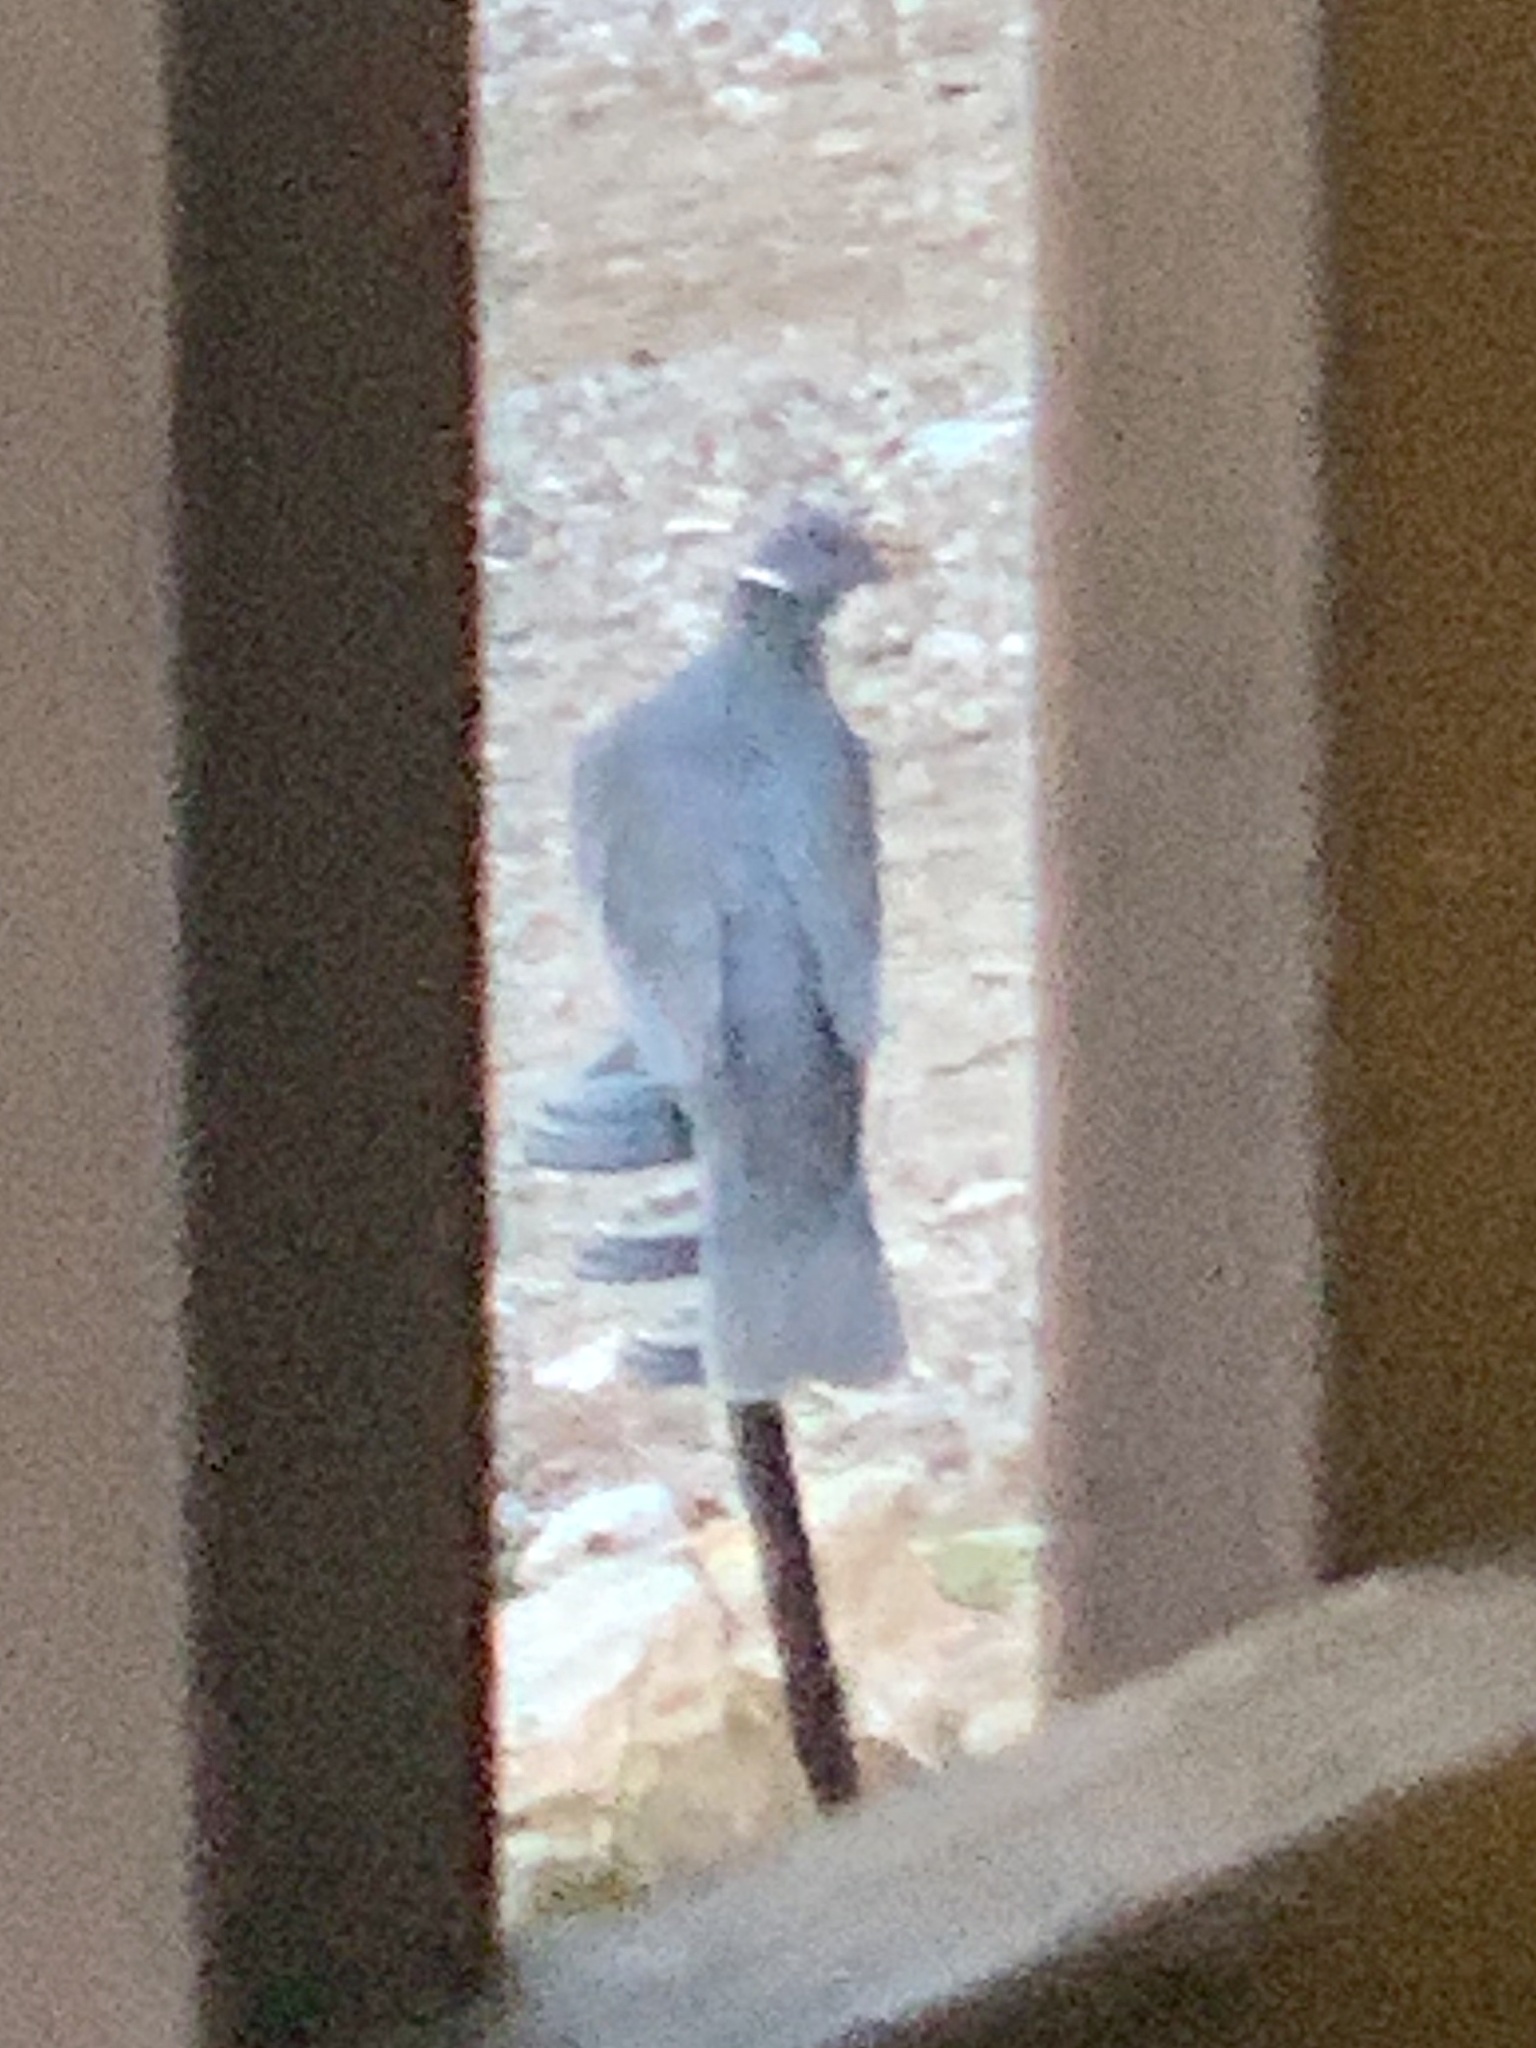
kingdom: Animalia
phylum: Chordata
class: Aves
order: Columbiformes
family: Columbidae
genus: Patagioenas
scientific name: Patagioenas fasciata
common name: Band-tailed pigeon
